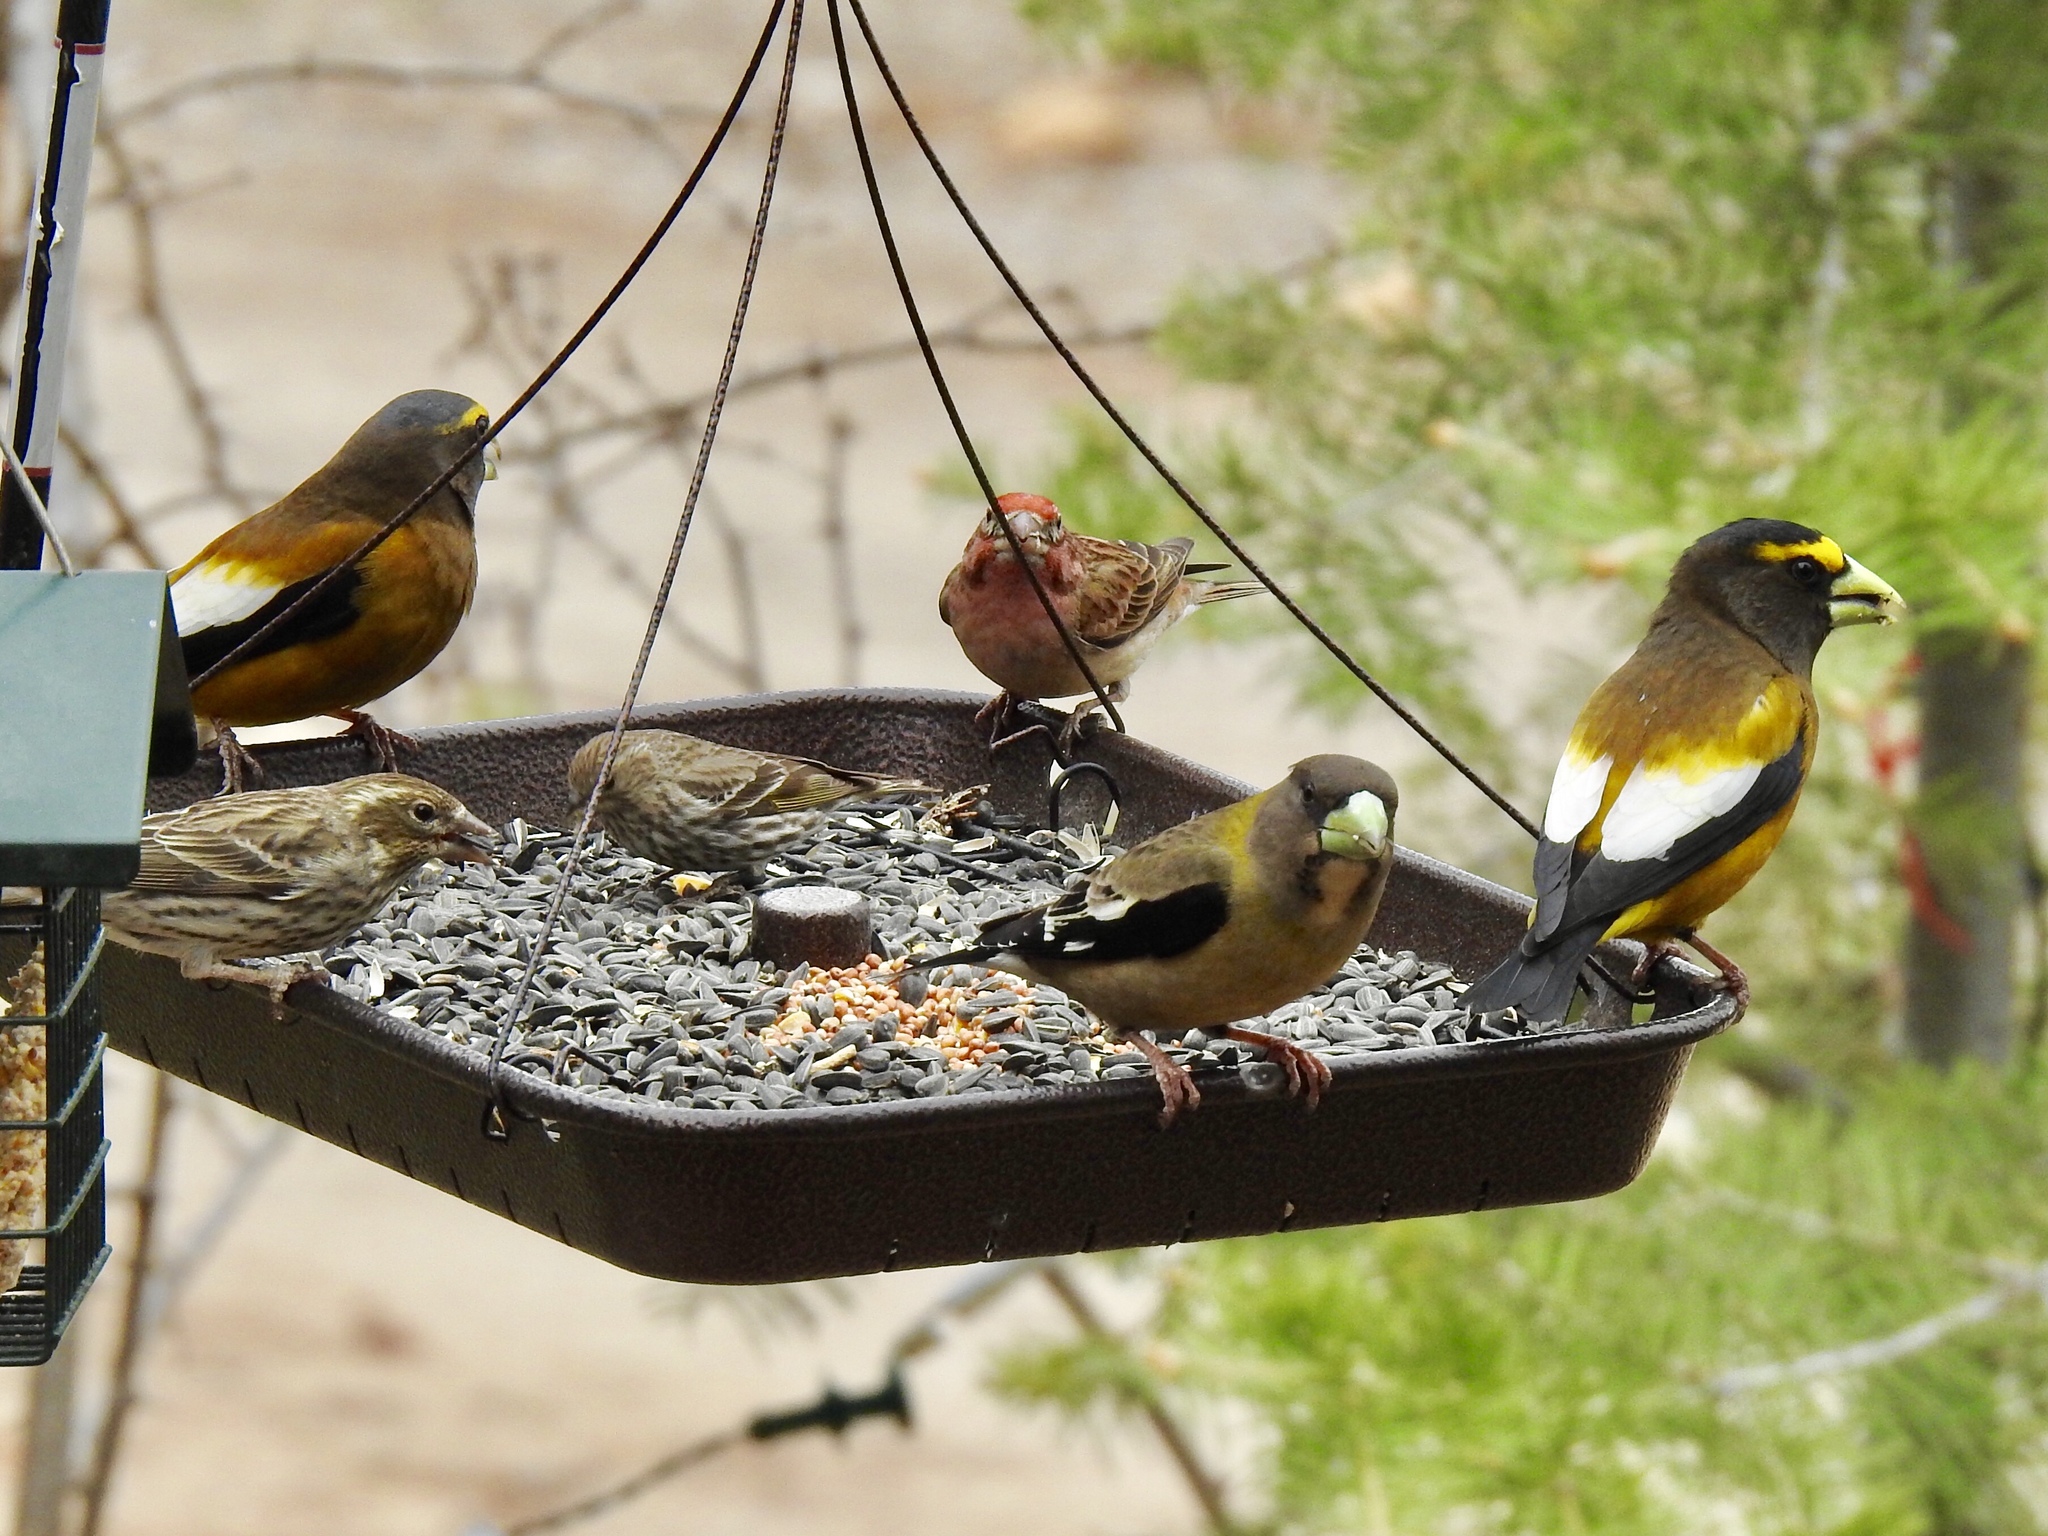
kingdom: Animalia
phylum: Chordata
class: Aves
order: Passeriformes
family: Fringillidae
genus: Hesperiphona
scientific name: Hesperiphona vespertina
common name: Evening grosbeak
